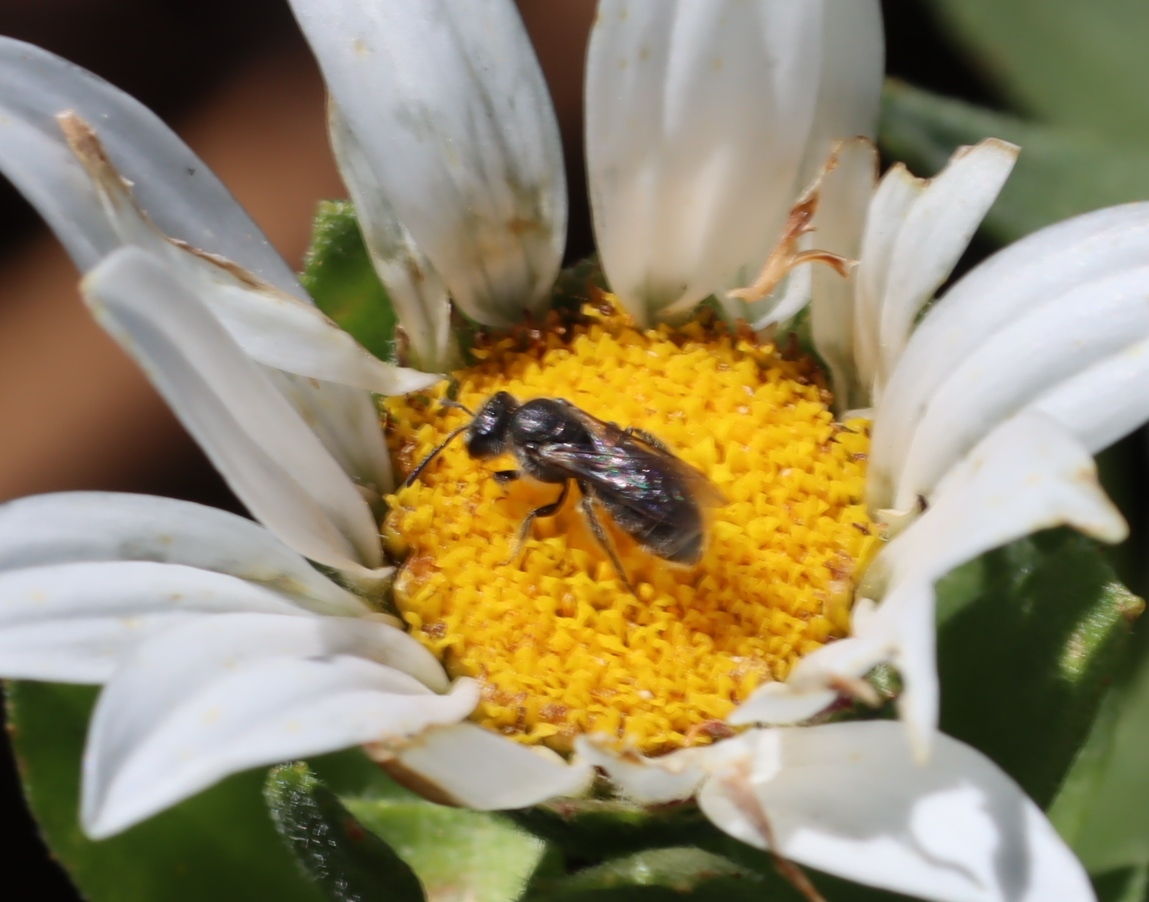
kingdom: Plantae
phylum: Tracheophyta
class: Magnoliopsida
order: Asterales
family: Asteraceae
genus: Osmitopsis
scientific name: Osmitopsis asteriscoides
